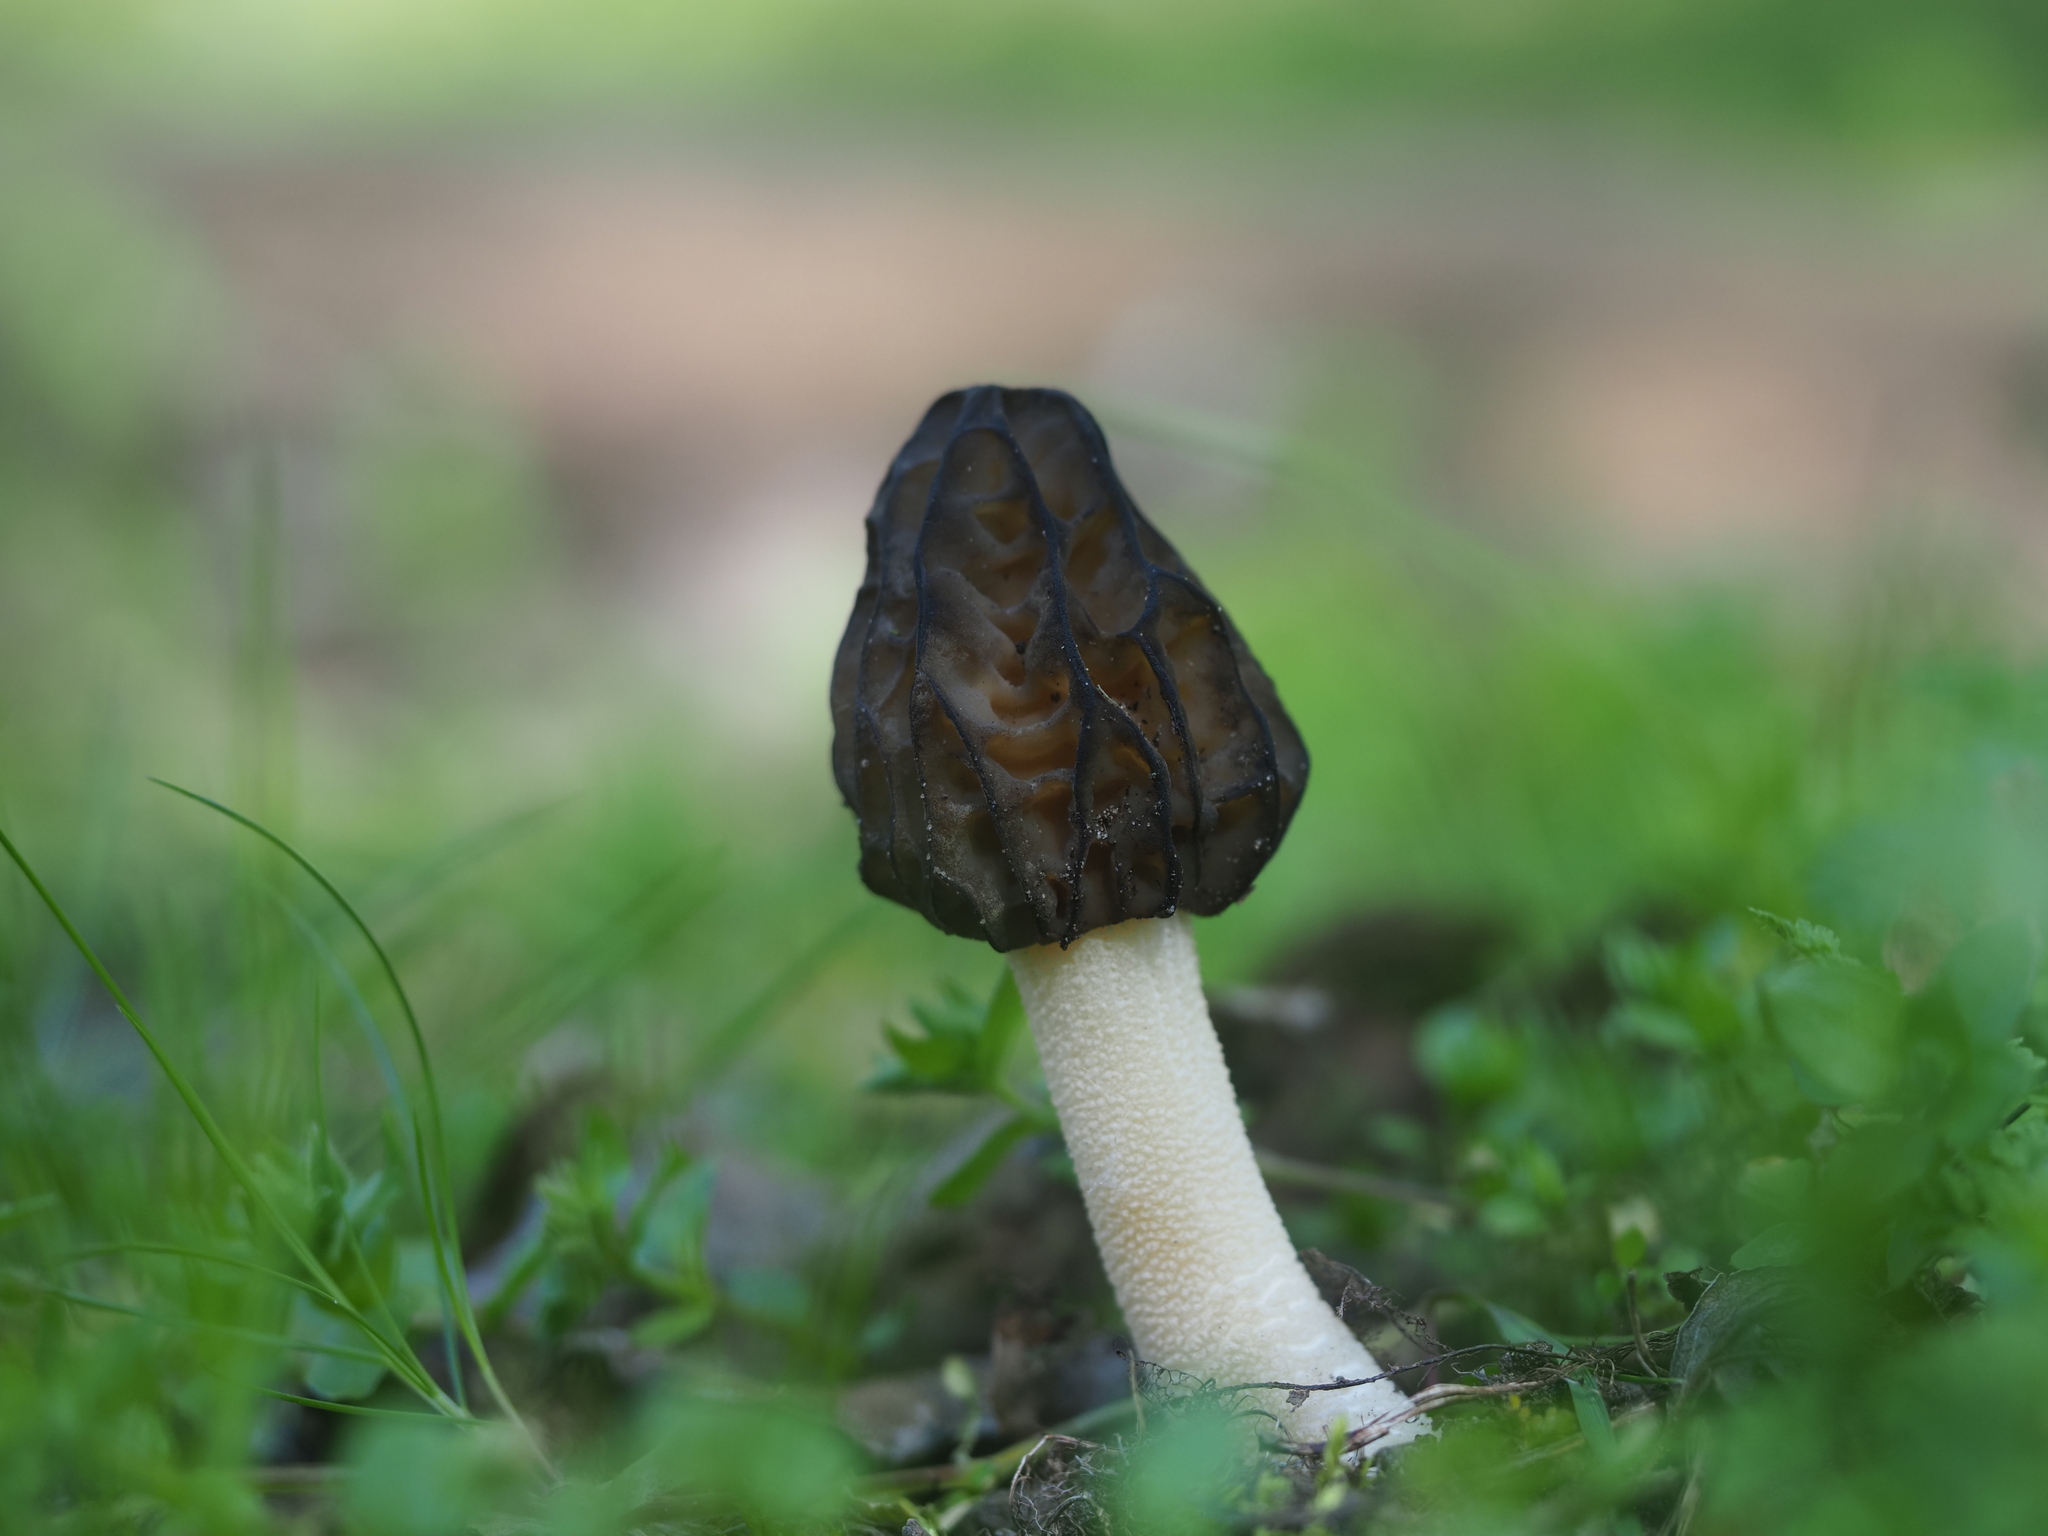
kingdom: Fungi
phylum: Ascomycota
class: Pezizomycetes
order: Pezizales
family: Morchellaceae
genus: Morchella
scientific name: Morchella semilibera
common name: Semifree morel
